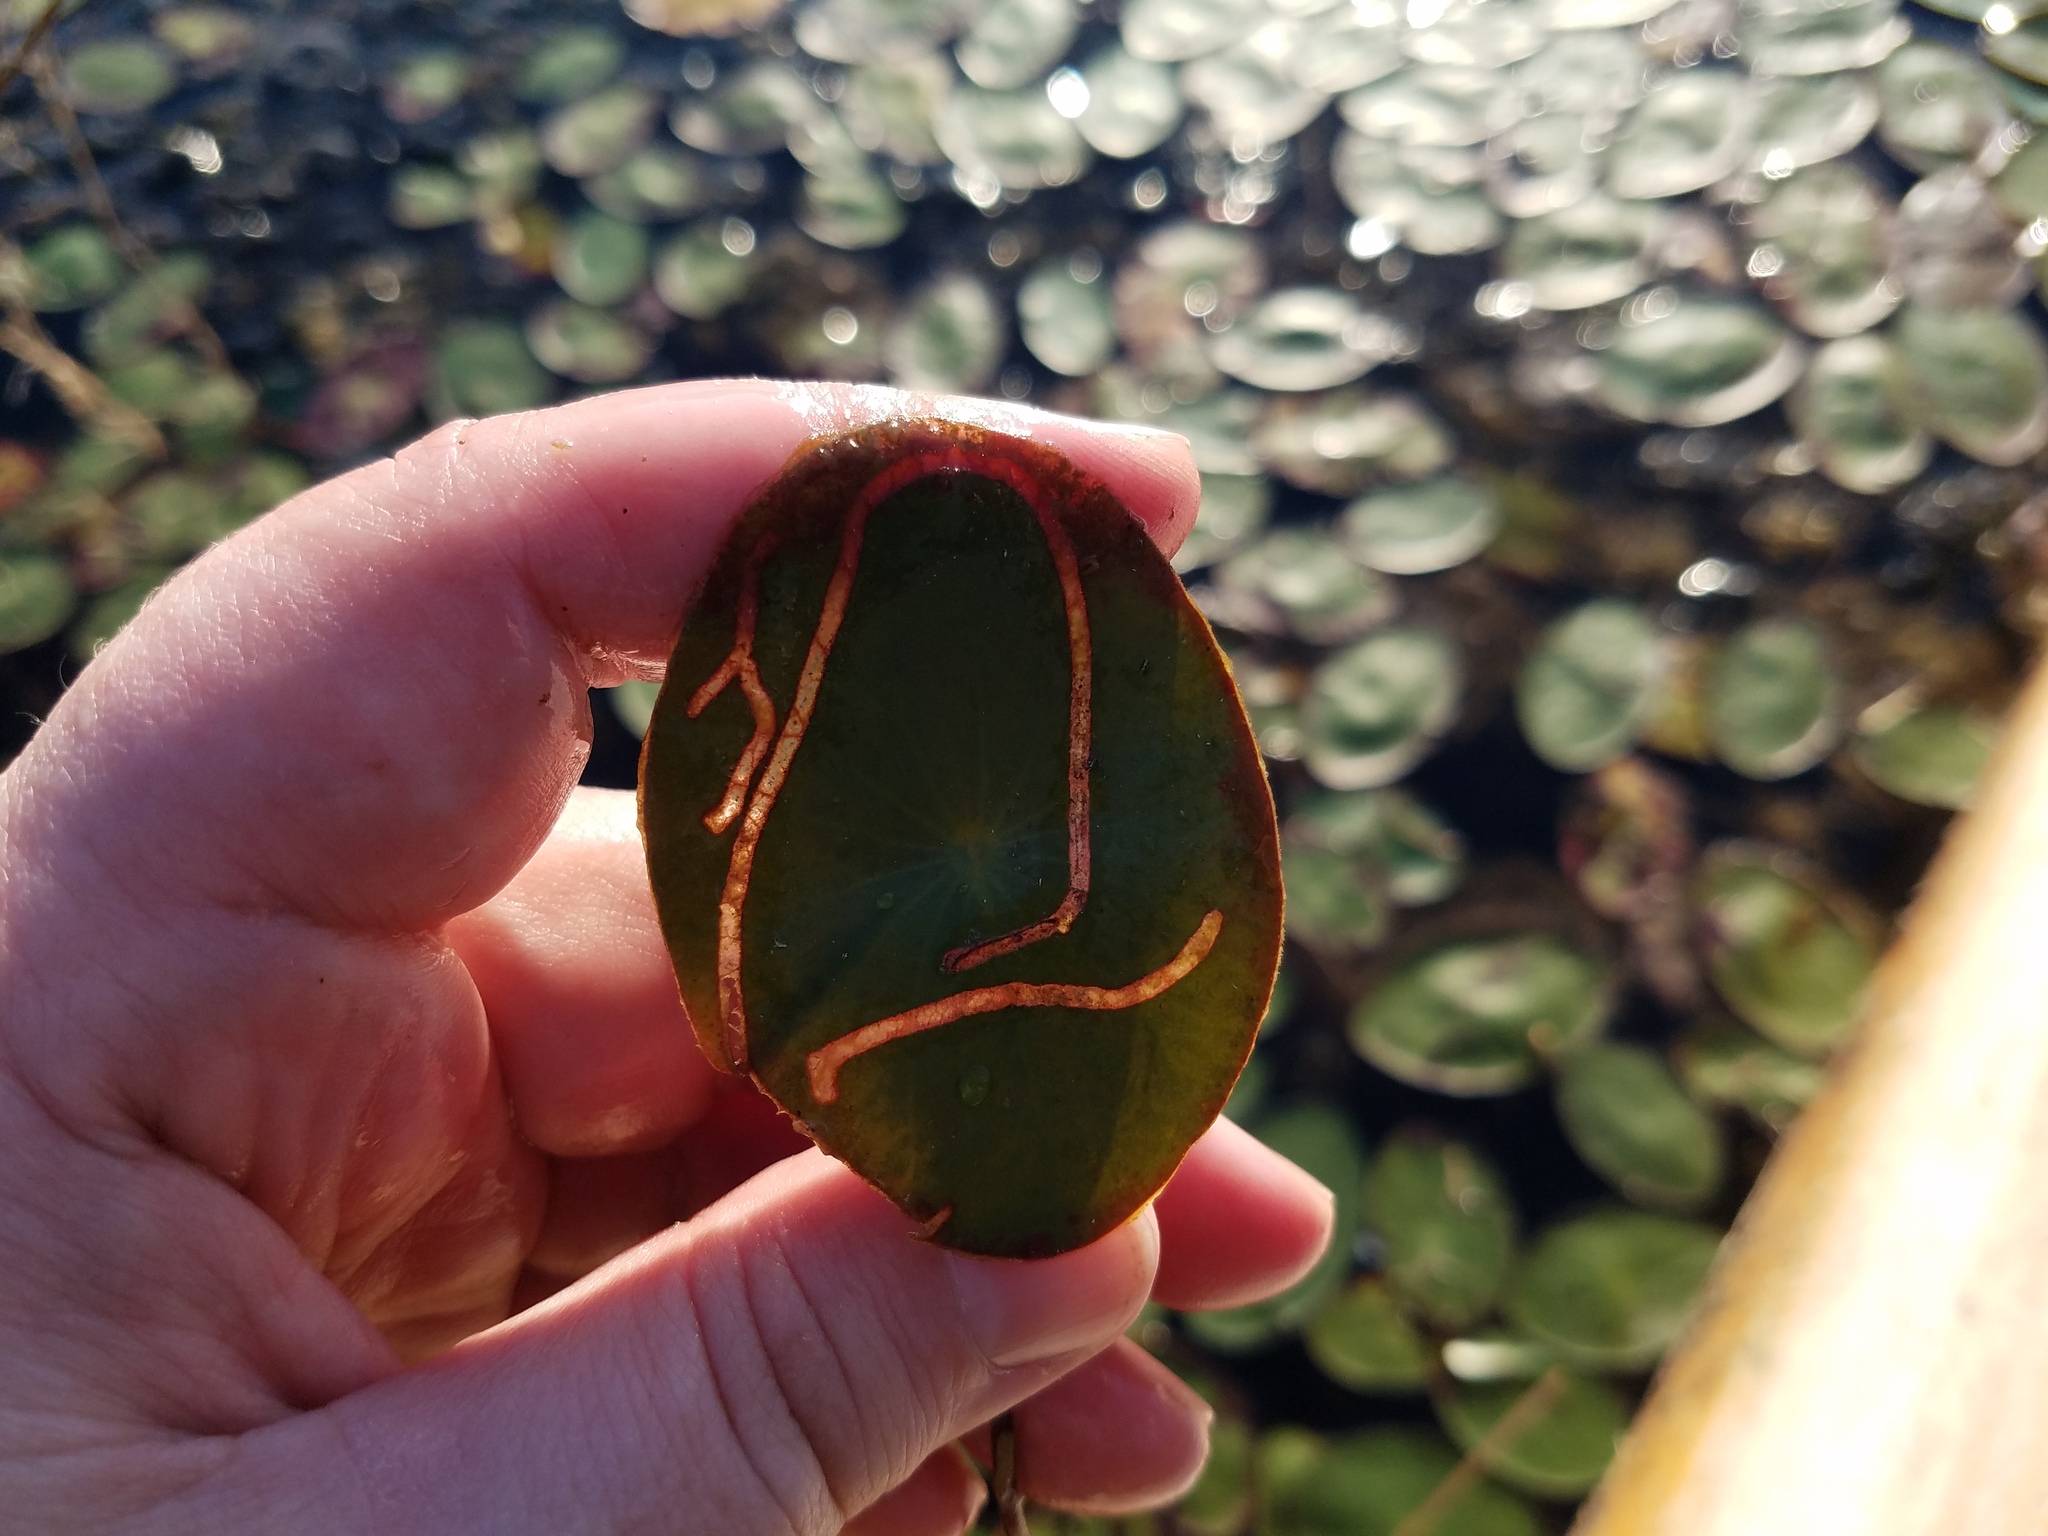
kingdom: Animalia
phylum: Arthropoda
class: Insecta
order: Diptera
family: Chironomidae
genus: Polypedilum
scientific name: Polypedilum braseniae
